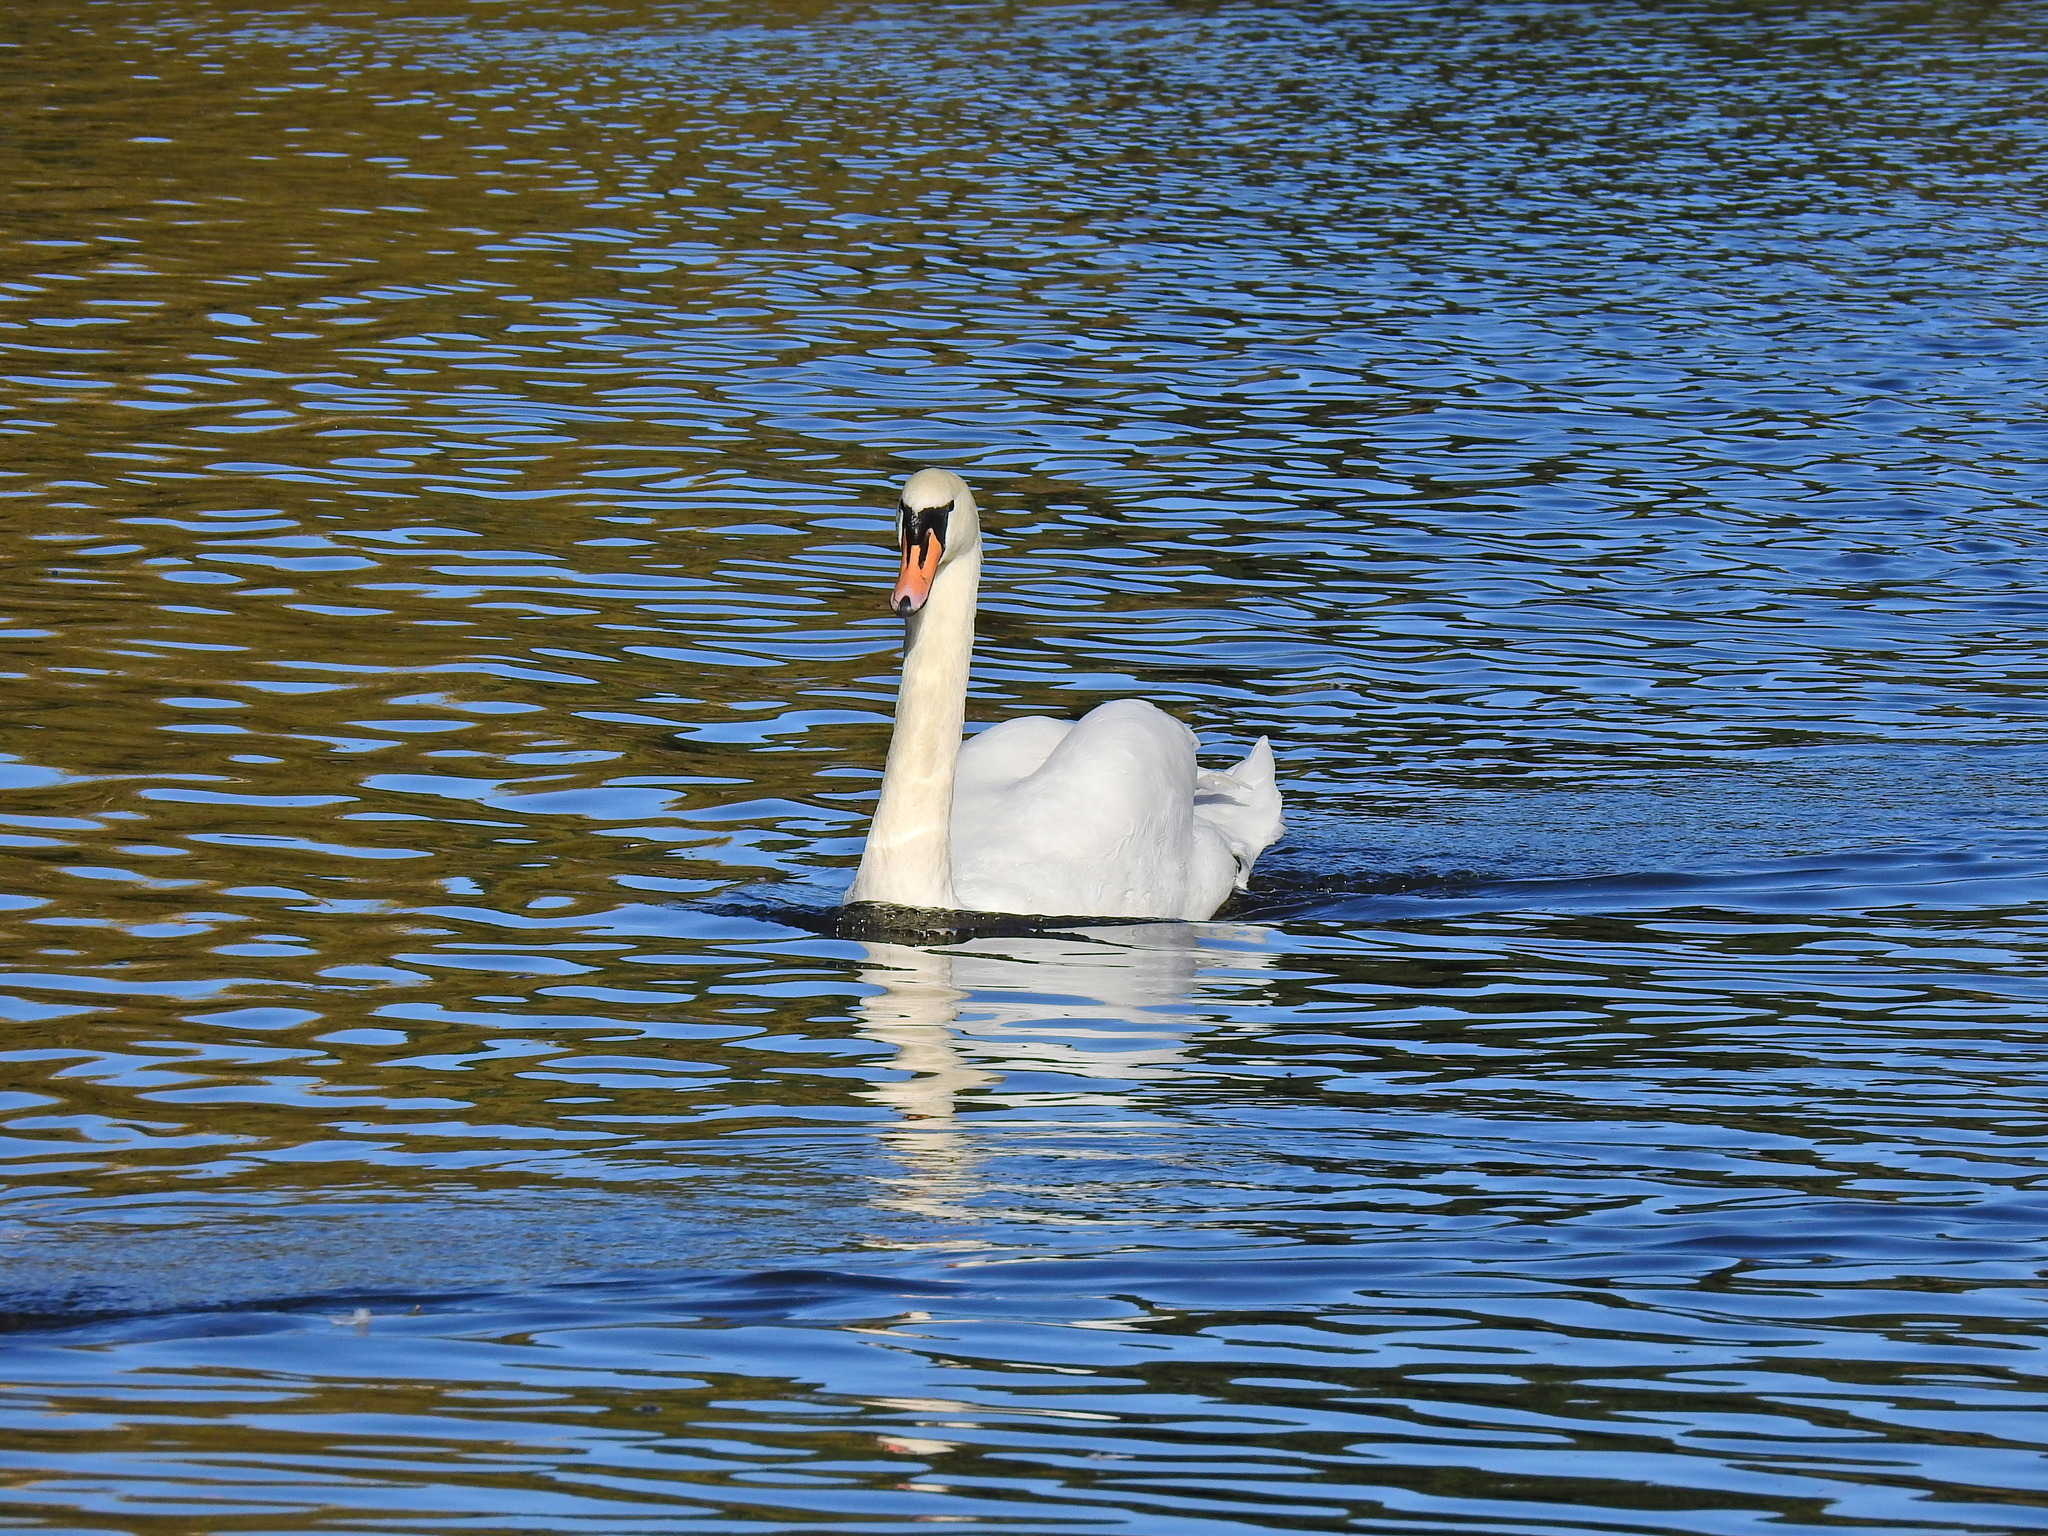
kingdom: Animalia
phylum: Chordata
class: Aves
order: Anseriformes
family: Anatidae
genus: Cygnus
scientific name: Cygnus olor
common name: Mute swan
